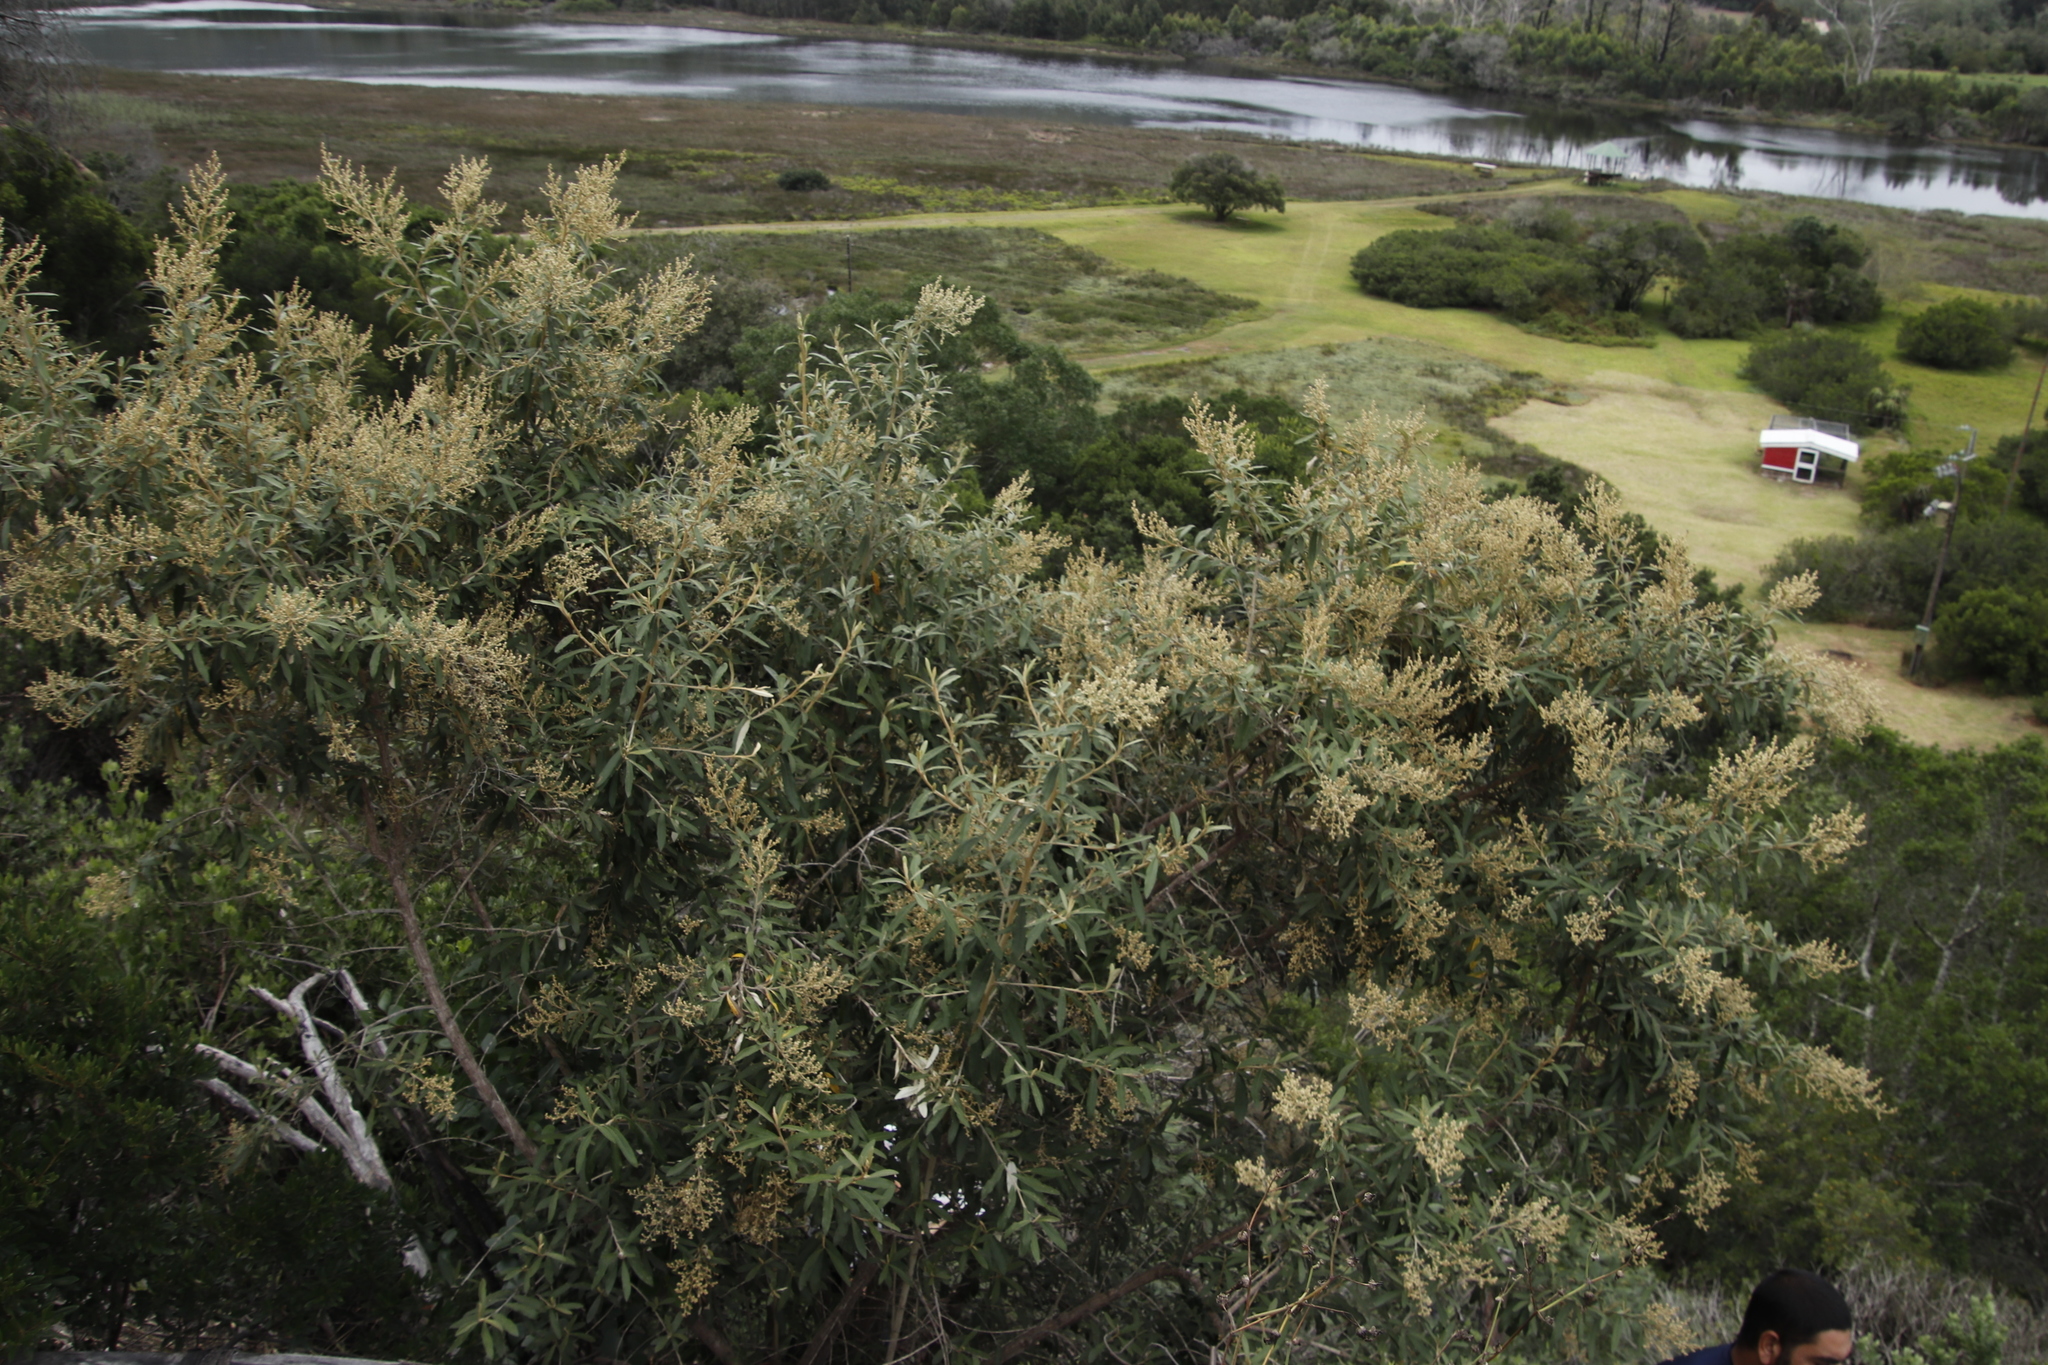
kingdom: Plantae
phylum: Tracheophyta
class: Magnoliopsida
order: Asterales
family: Asteraceae
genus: Tarchonanthus
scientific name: Tarchonanthus littoralis
